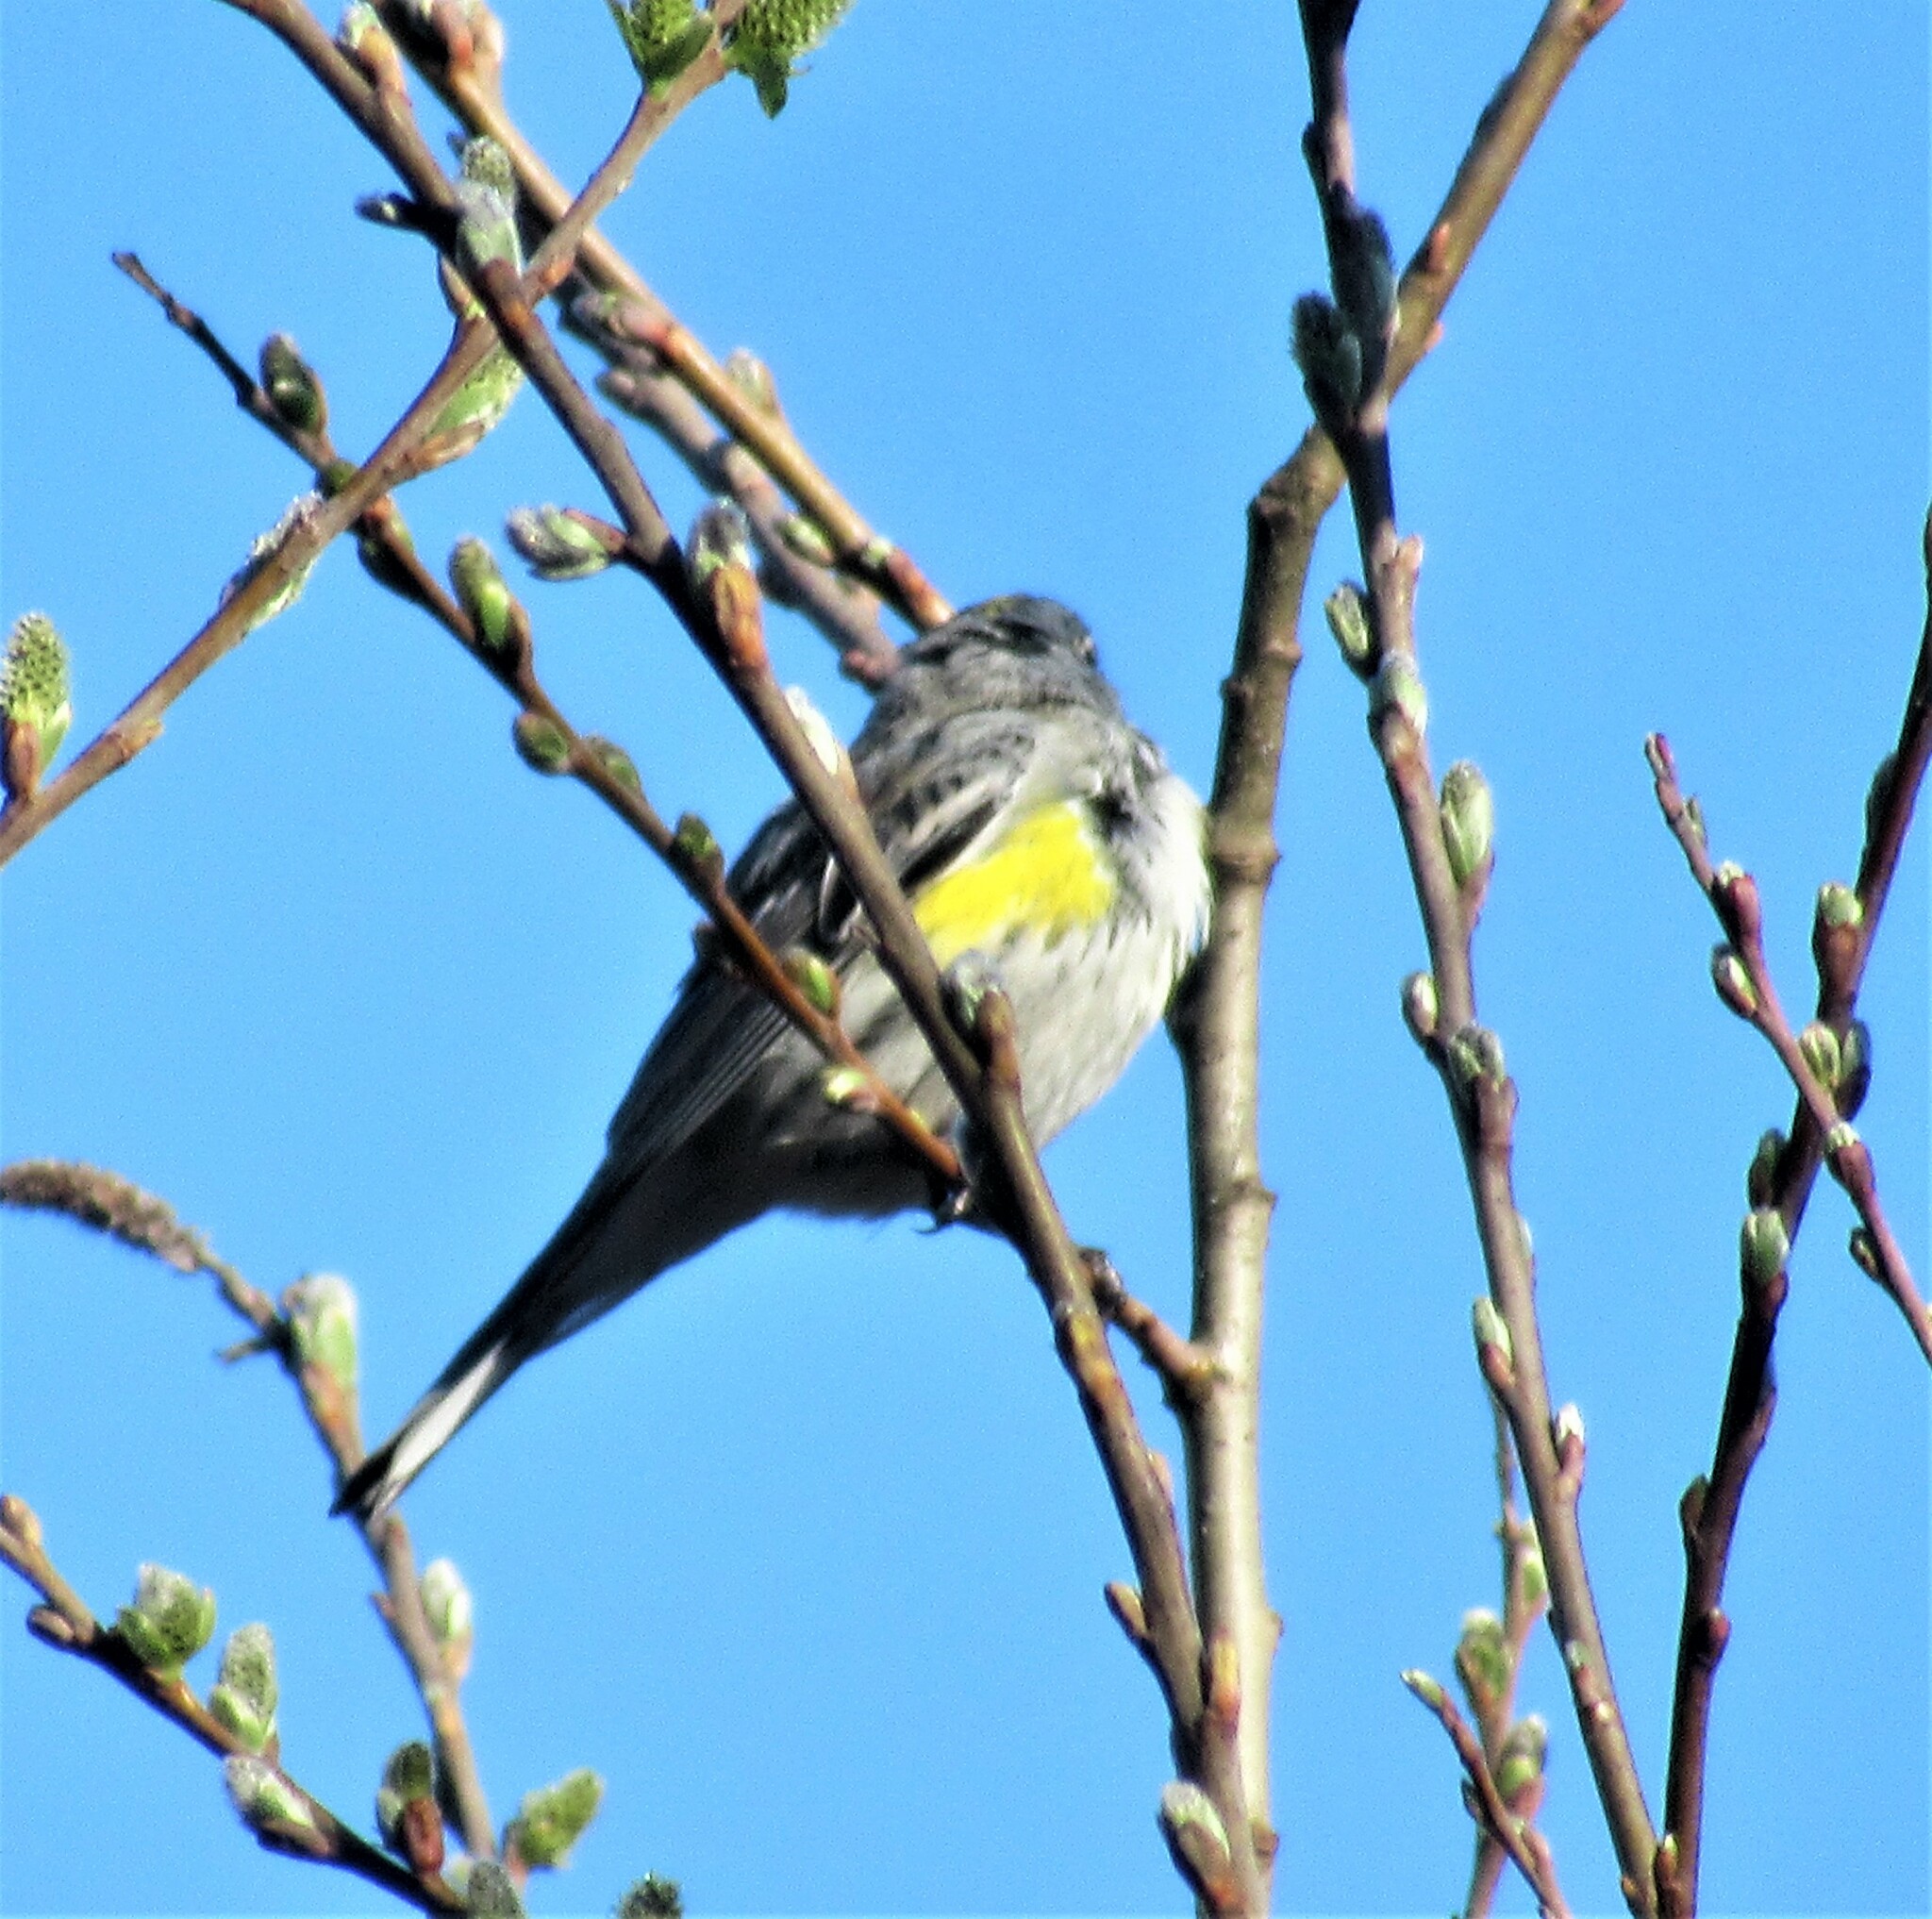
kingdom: Animalia
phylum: Chordata
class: Aves
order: Passeriformes
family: Parulidae
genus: Setophaga
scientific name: Setophaga auduboni
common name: Audubon's warbler
